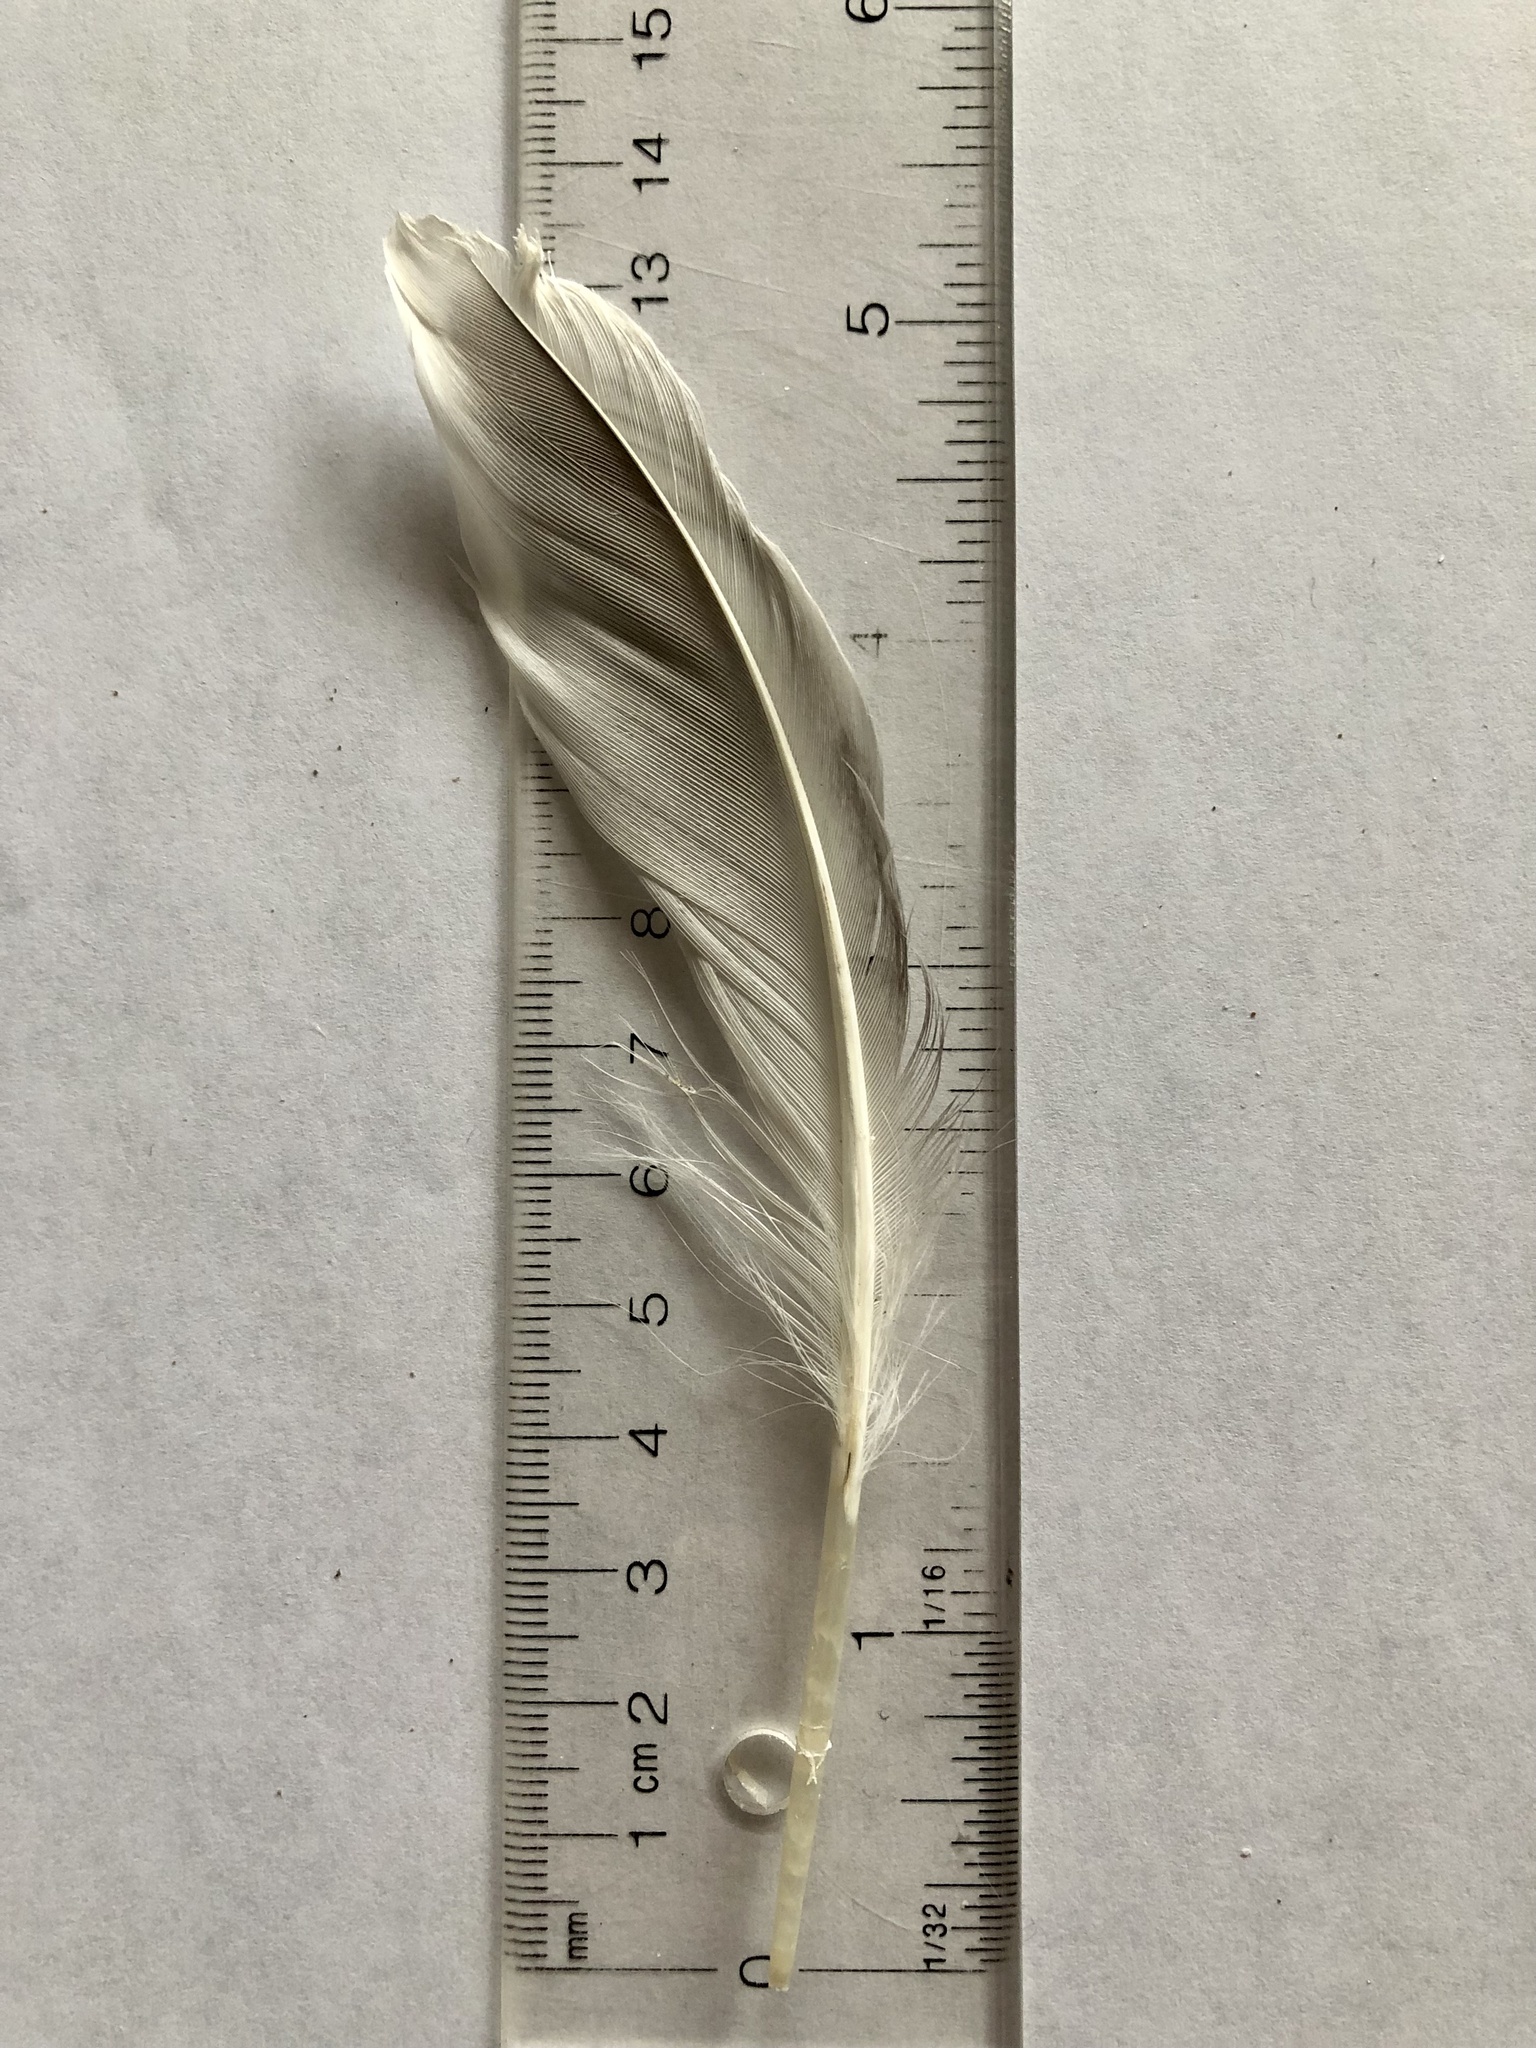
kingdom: Animalia
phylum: Chordata
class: Aves
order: Anseriformes
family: Anatidae
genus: Anas
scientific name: Anas platyrhynchos
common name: Mallard
